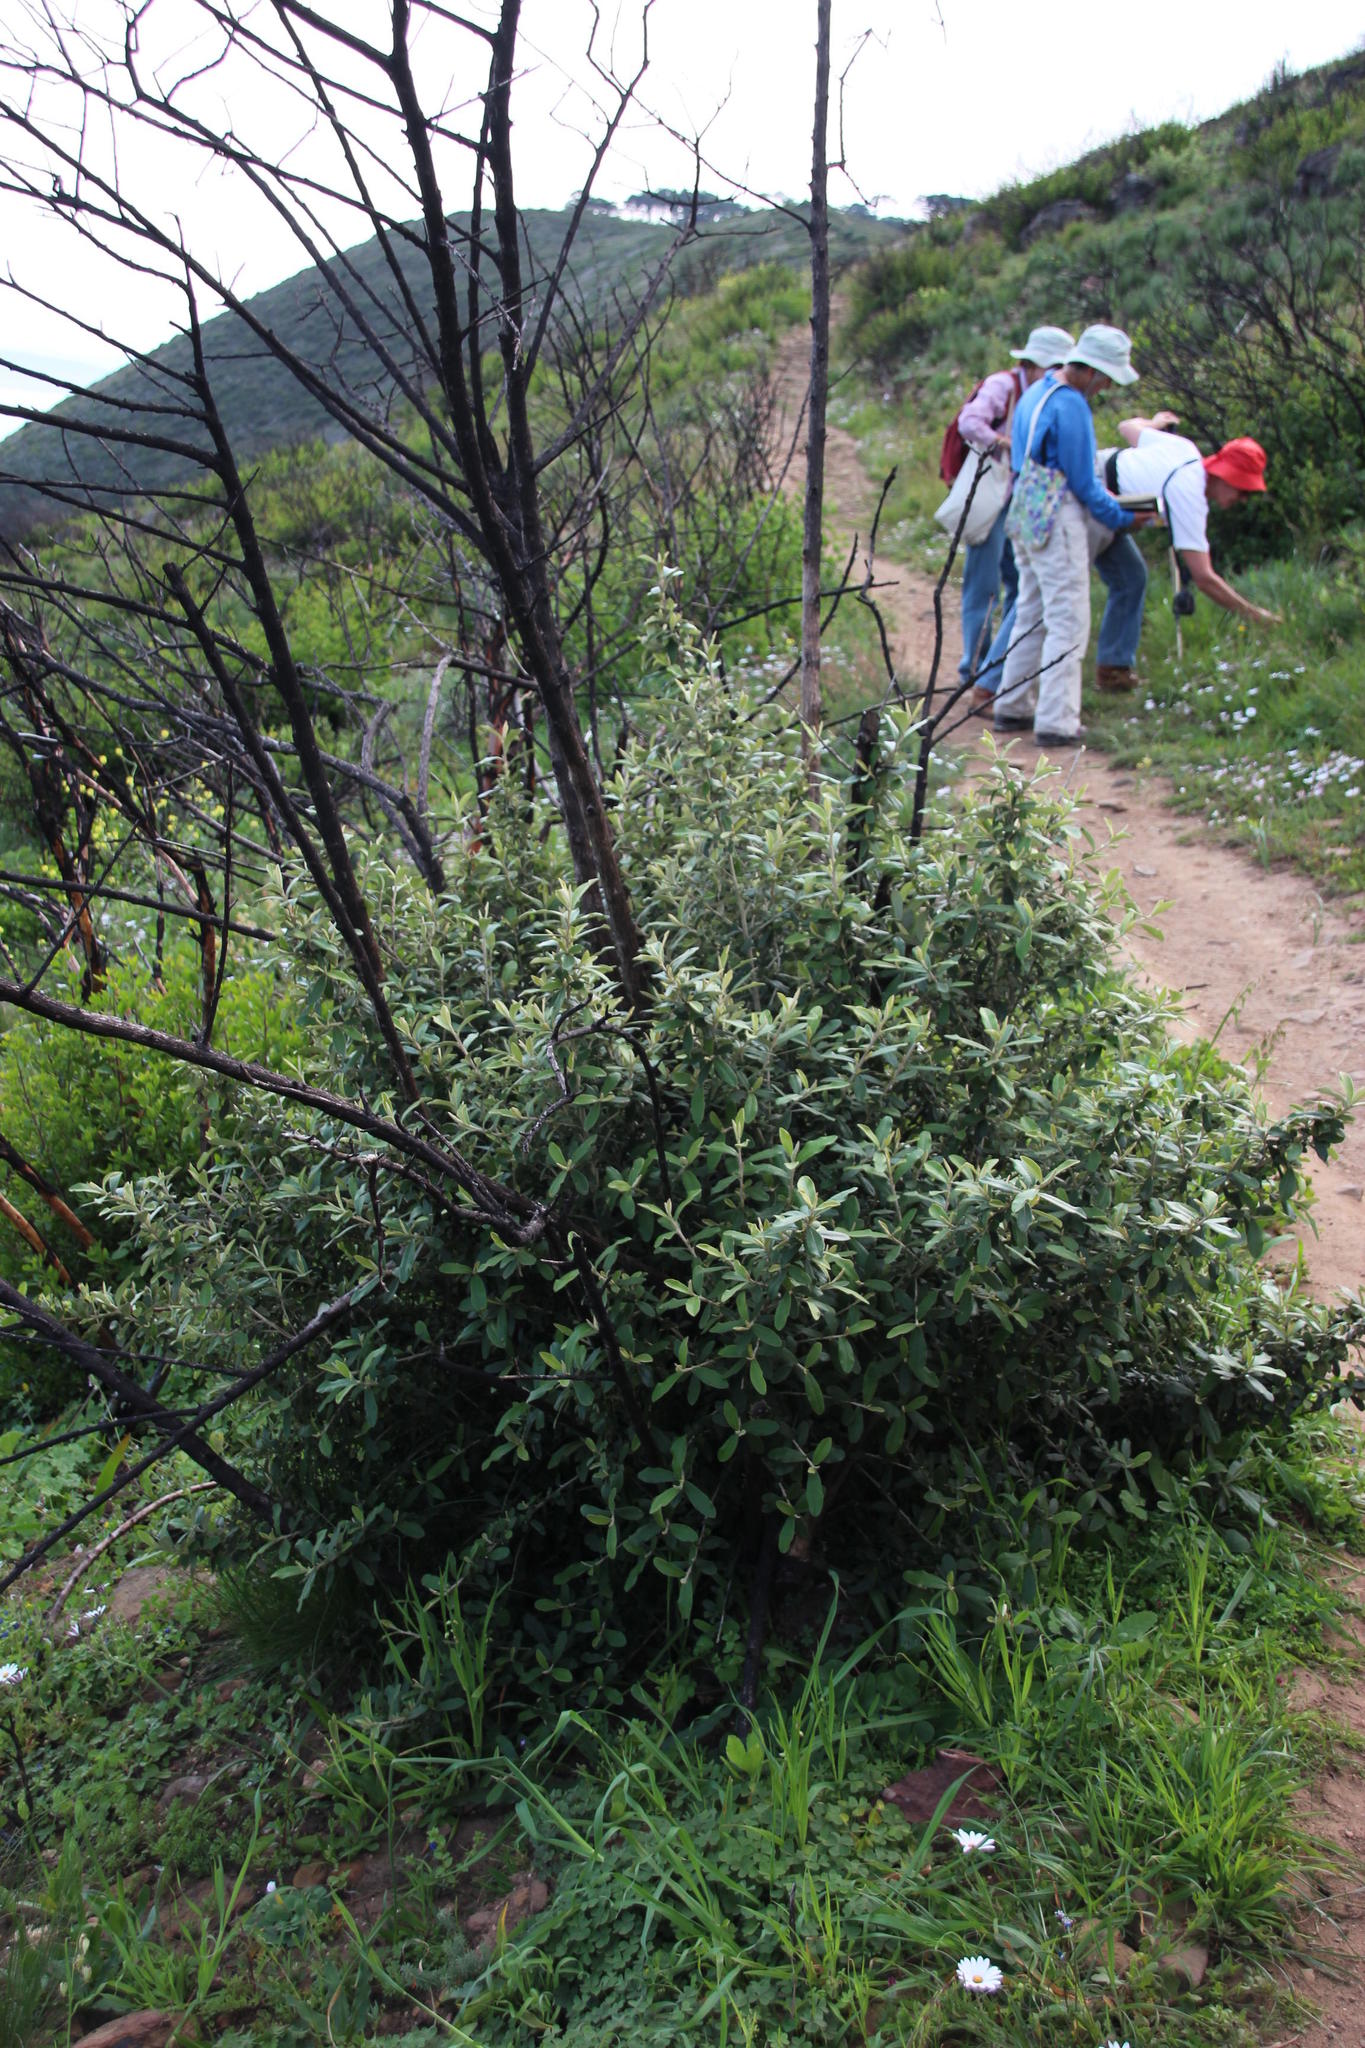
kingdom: Plantae
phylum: Tracheophyta
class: Magnoliopsida
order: Asterales
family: Asteraceae
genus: Tarchonanthus
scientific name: Tarchonanthus littoralis
